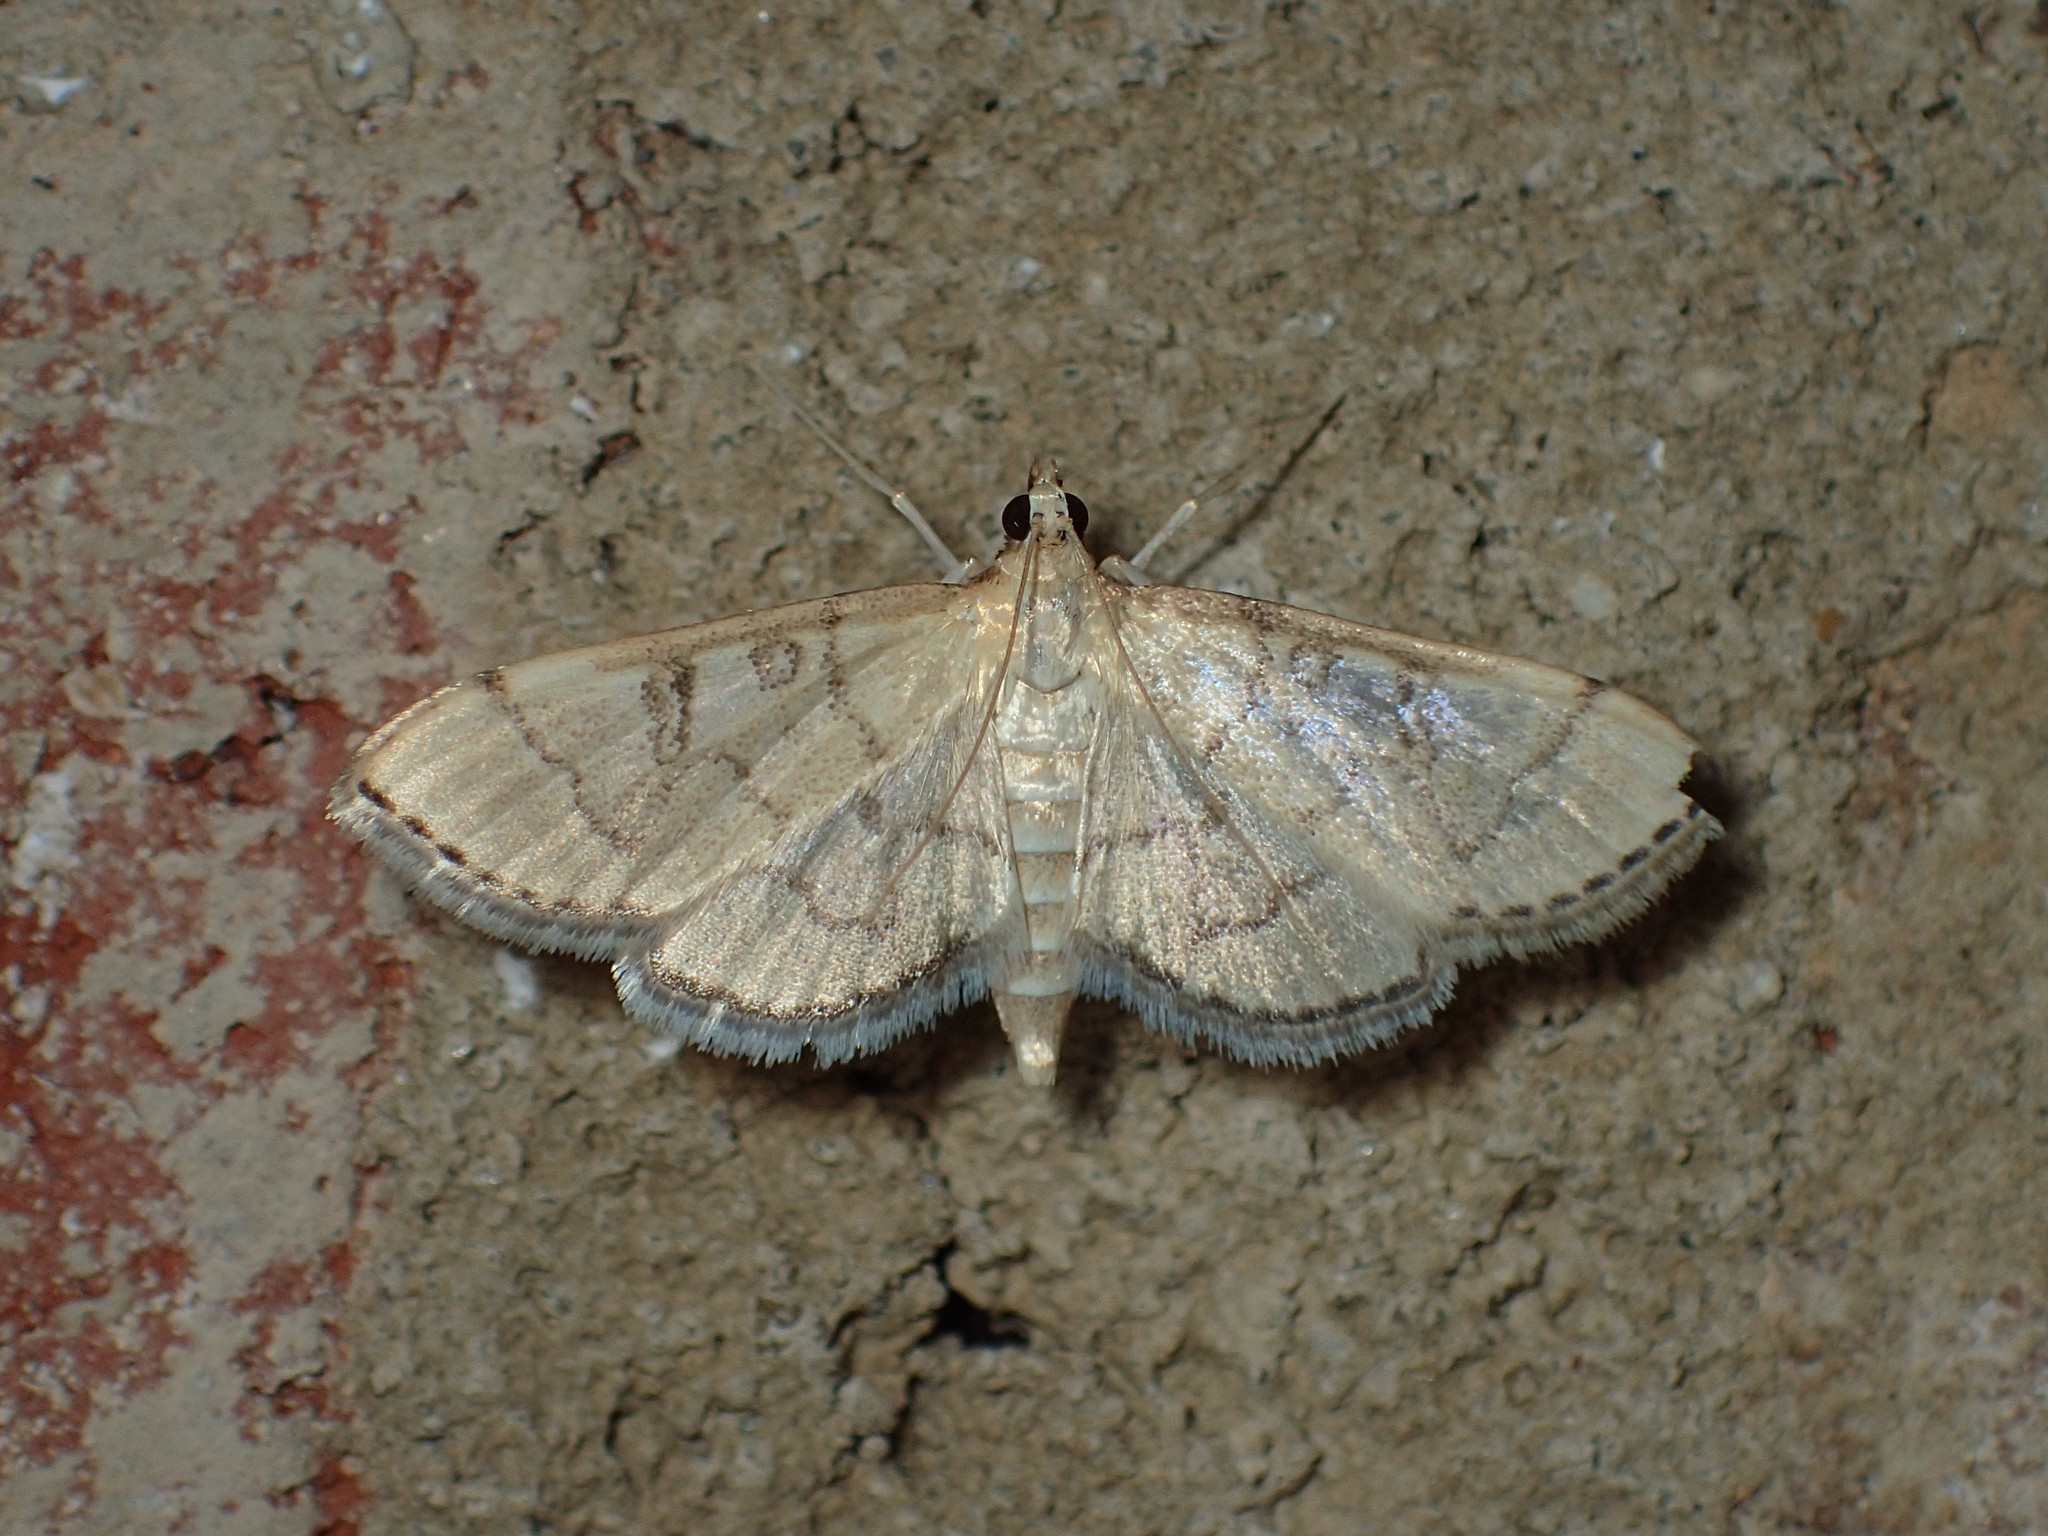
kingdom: Animalia
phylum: Arthropoda
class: Insecta
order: Lepidoptera
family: Crambidae
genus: Lamprosema
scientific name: Lamprosema Blepharomastix ranalis
